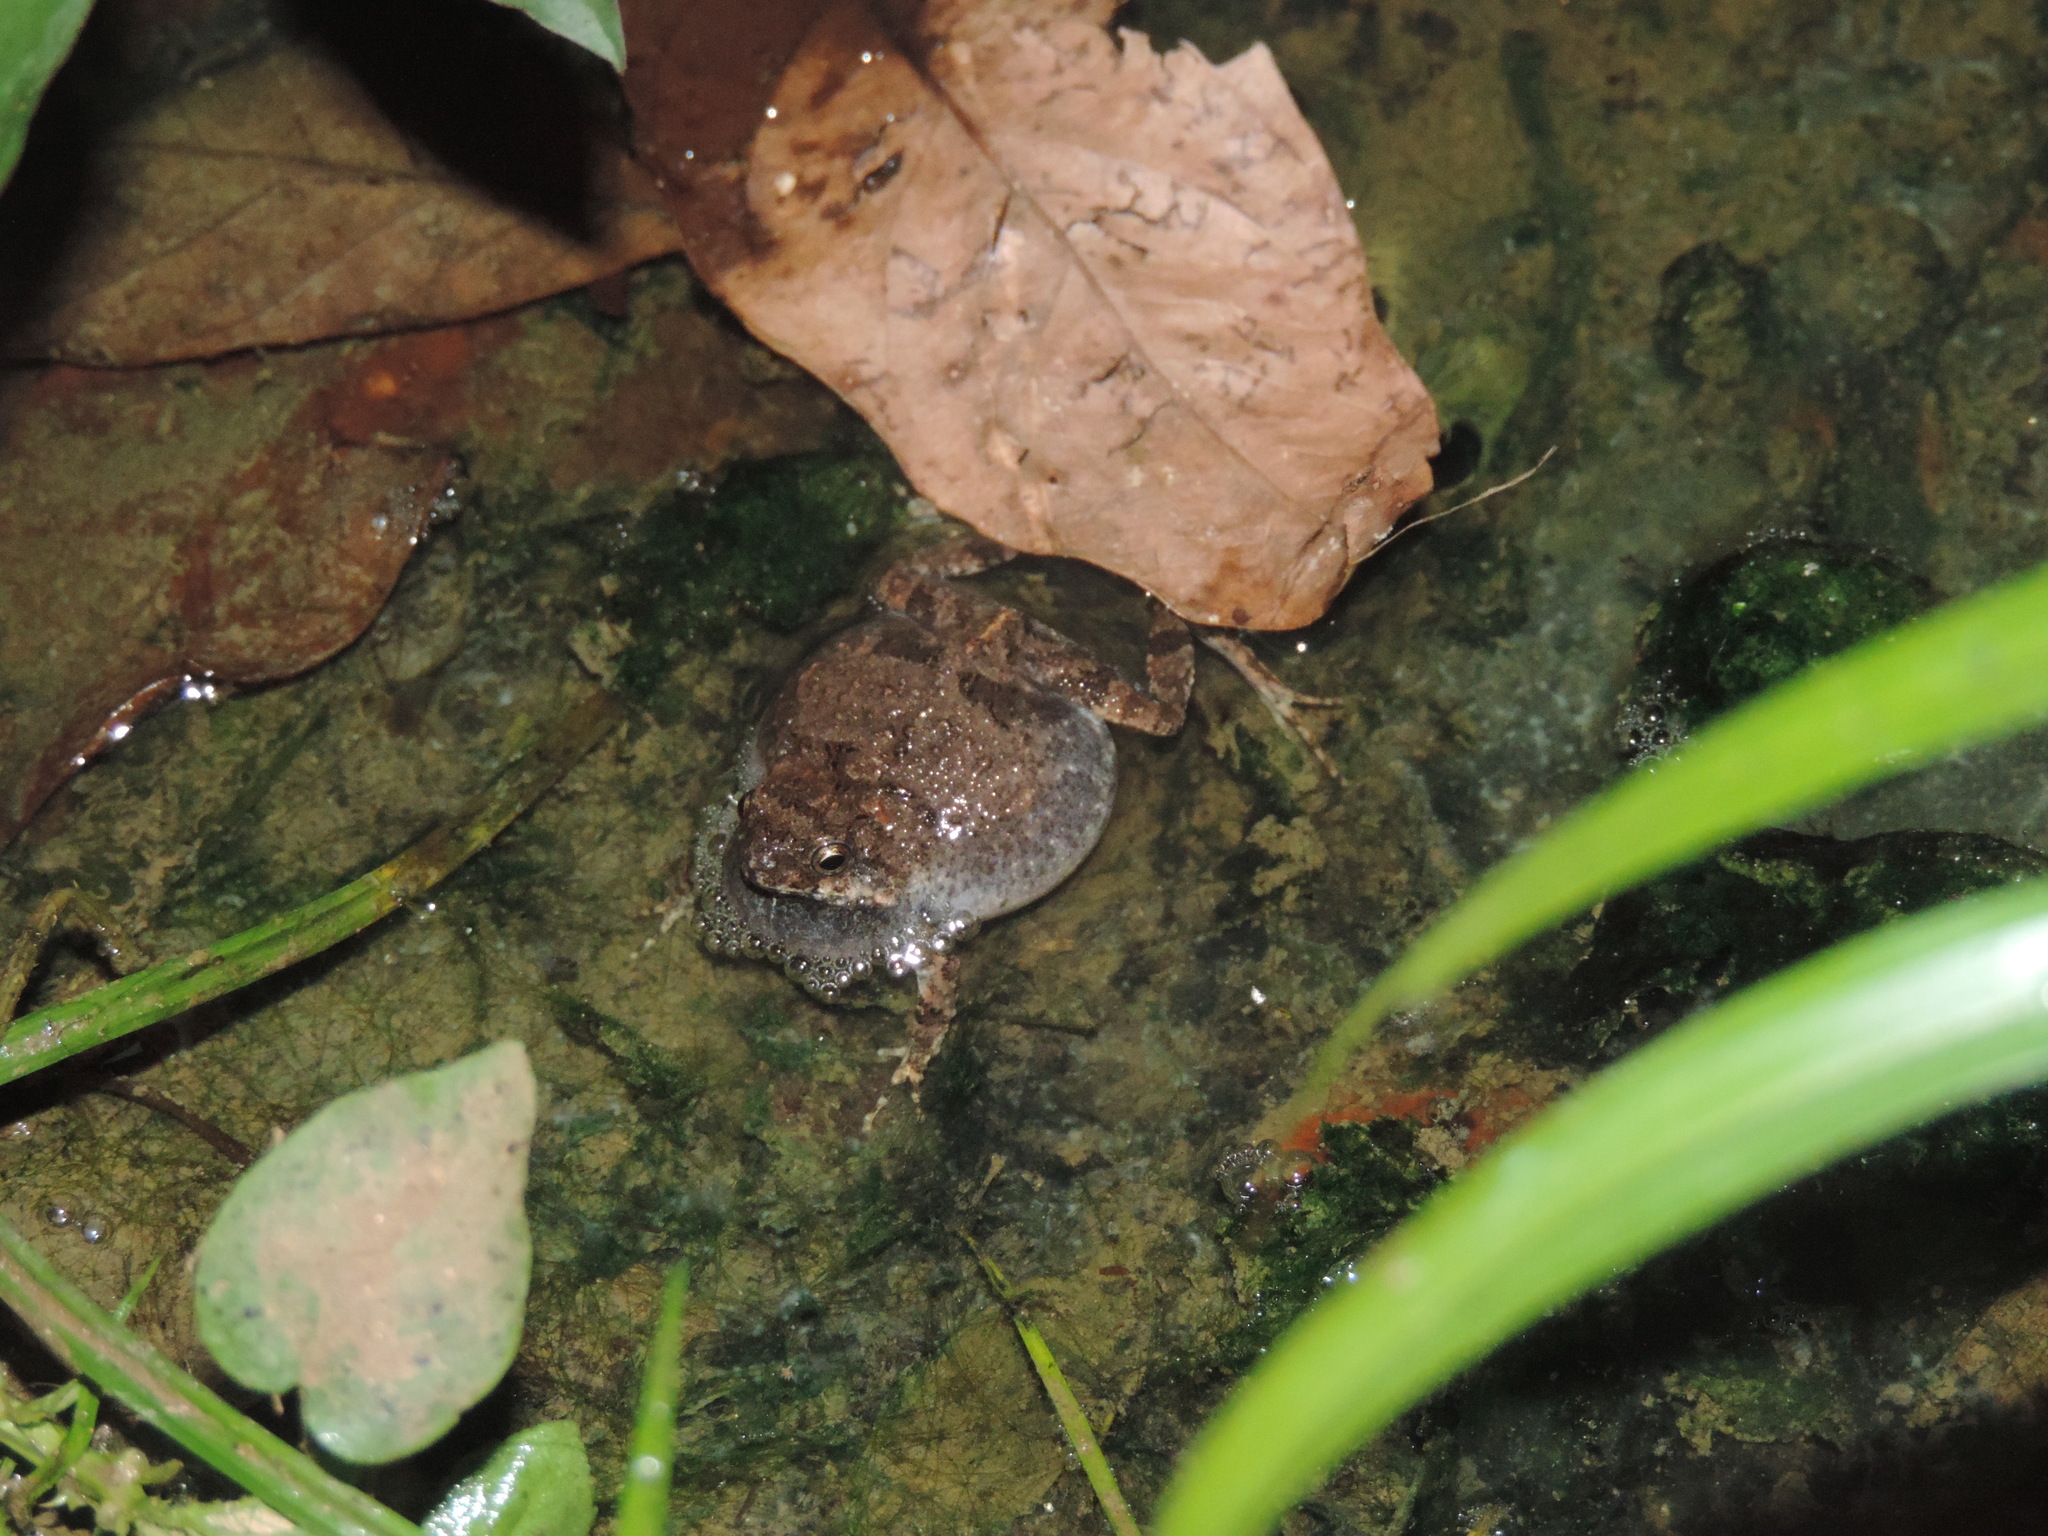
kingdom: Animalia
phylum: Chordata
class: Amphibia
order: Anura
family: Leptodactylidae
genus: Engystomops
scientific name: Engystomops pustulosus
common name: Tungara frog
